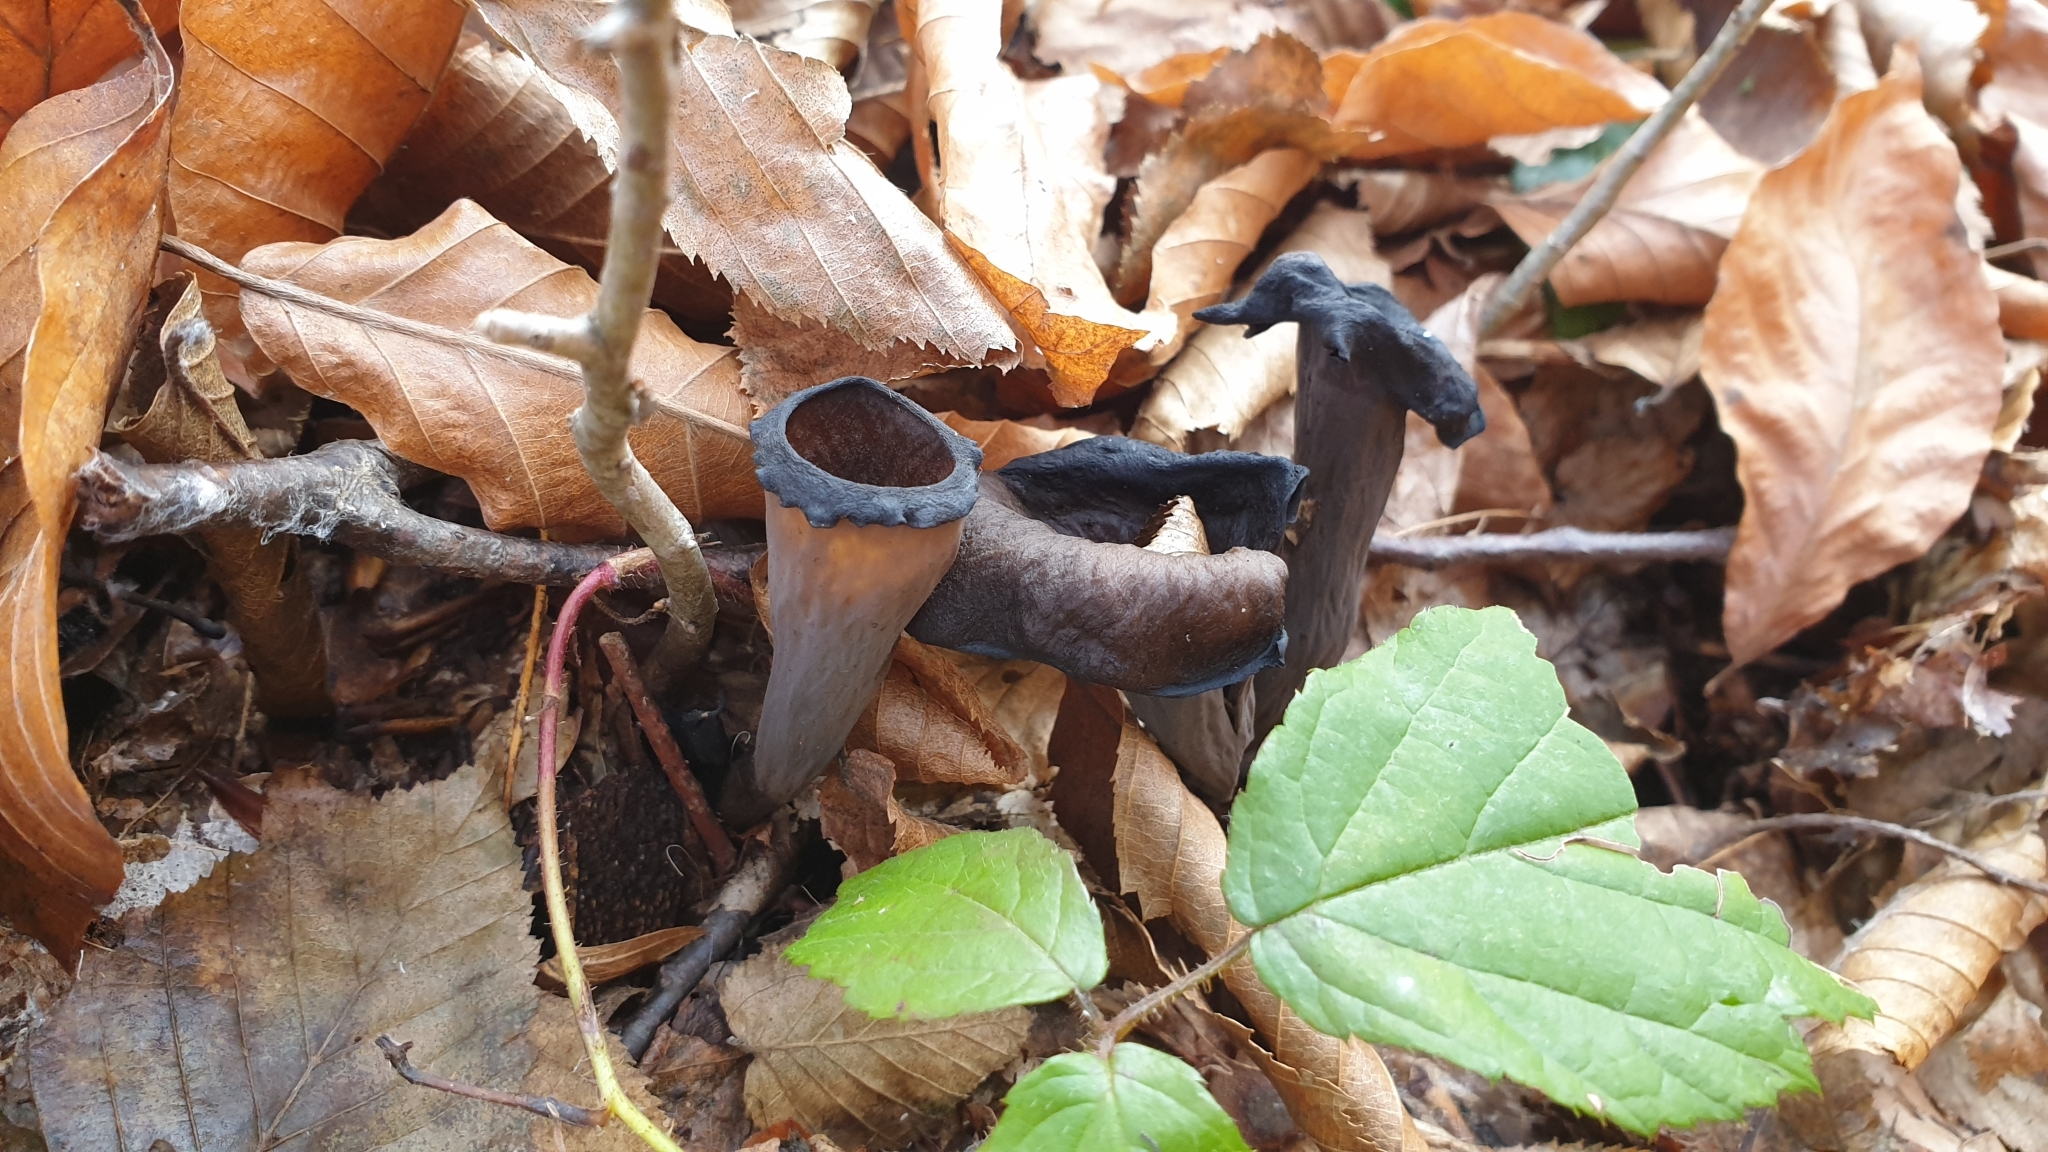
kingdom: Fungi
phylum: Basidiomycota
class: Agaricomycetes
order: Cantharellales
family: Hydnaceae
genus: Craterellus
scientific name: Craterellus cornucopioides
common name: Horn of plenty
